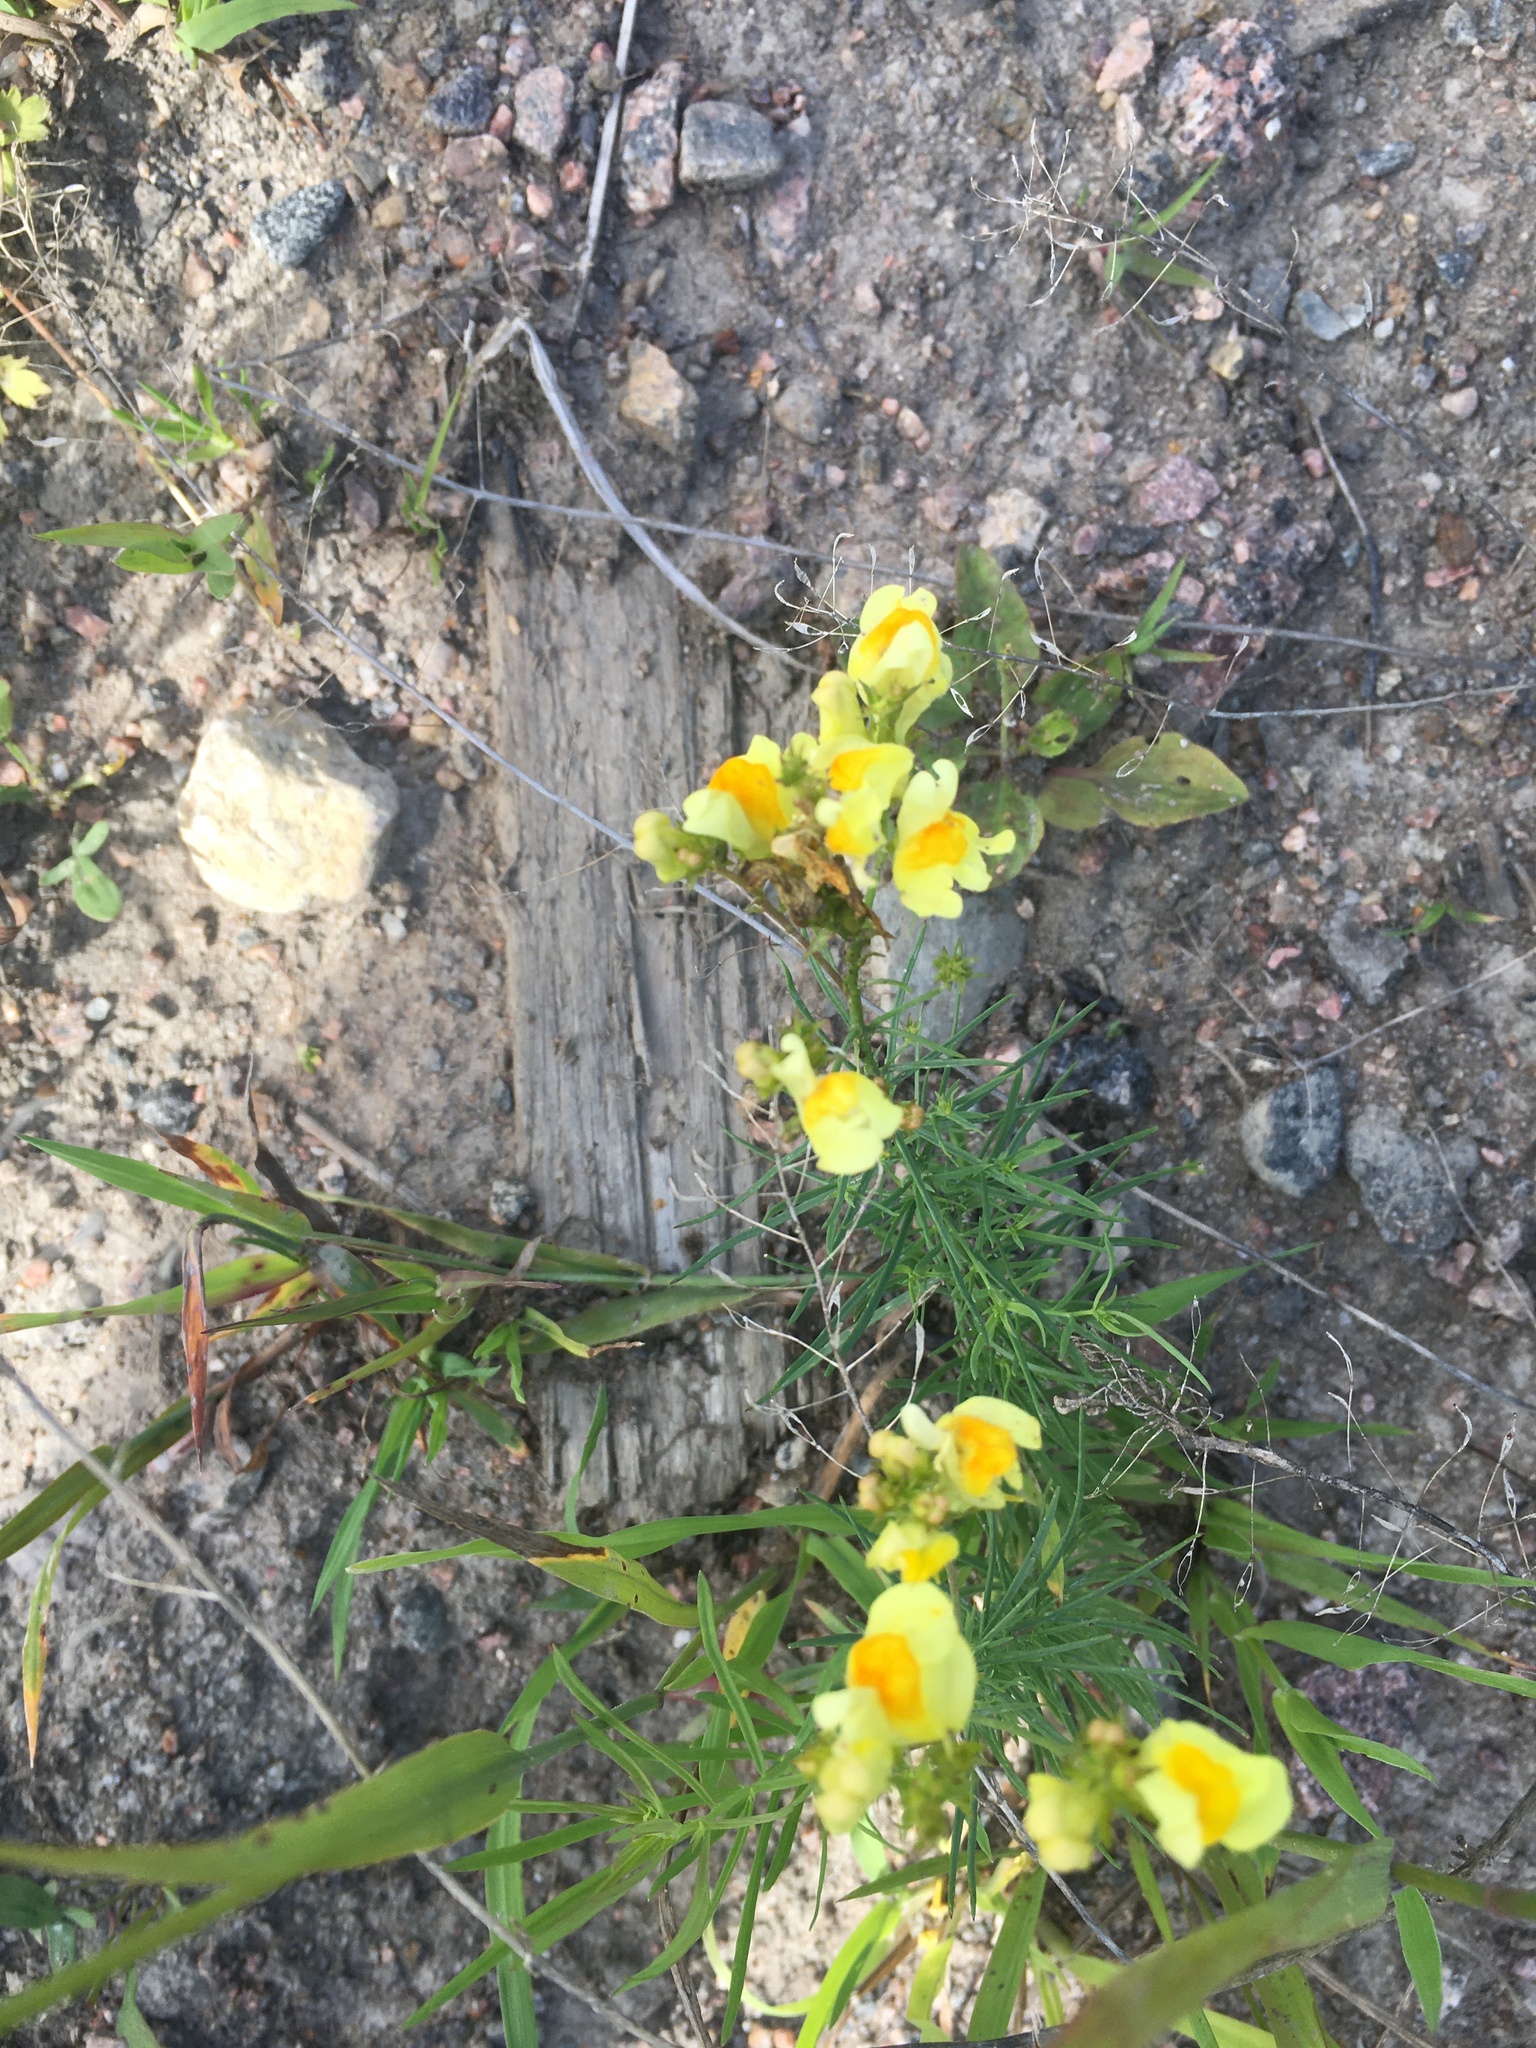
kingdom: Plantae
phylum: Tracheophyta
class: Magnoliopsida
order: Lamiales
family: Plantaginaceae
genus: Linaria
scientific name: Linaria vulgaris
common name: Butter and eggs
